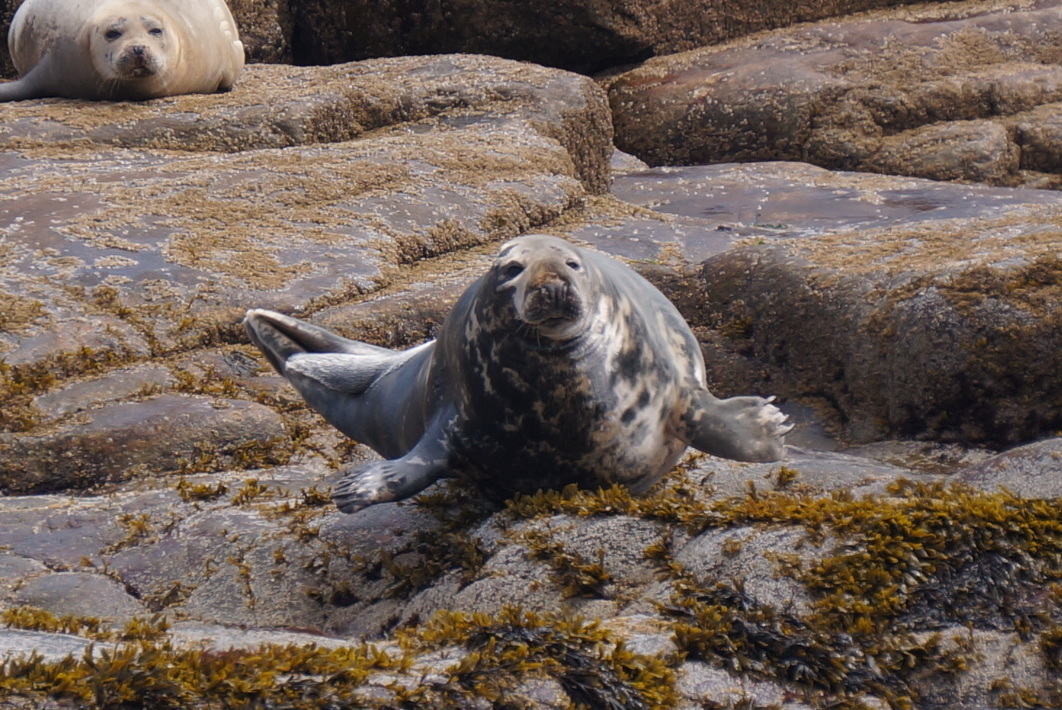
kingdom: Animalia
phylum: Chordata
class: Mammalia
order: Carnivora
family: Phocidae
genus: Halichoerus
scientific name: Halichoerus grypus
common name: Grey seal
